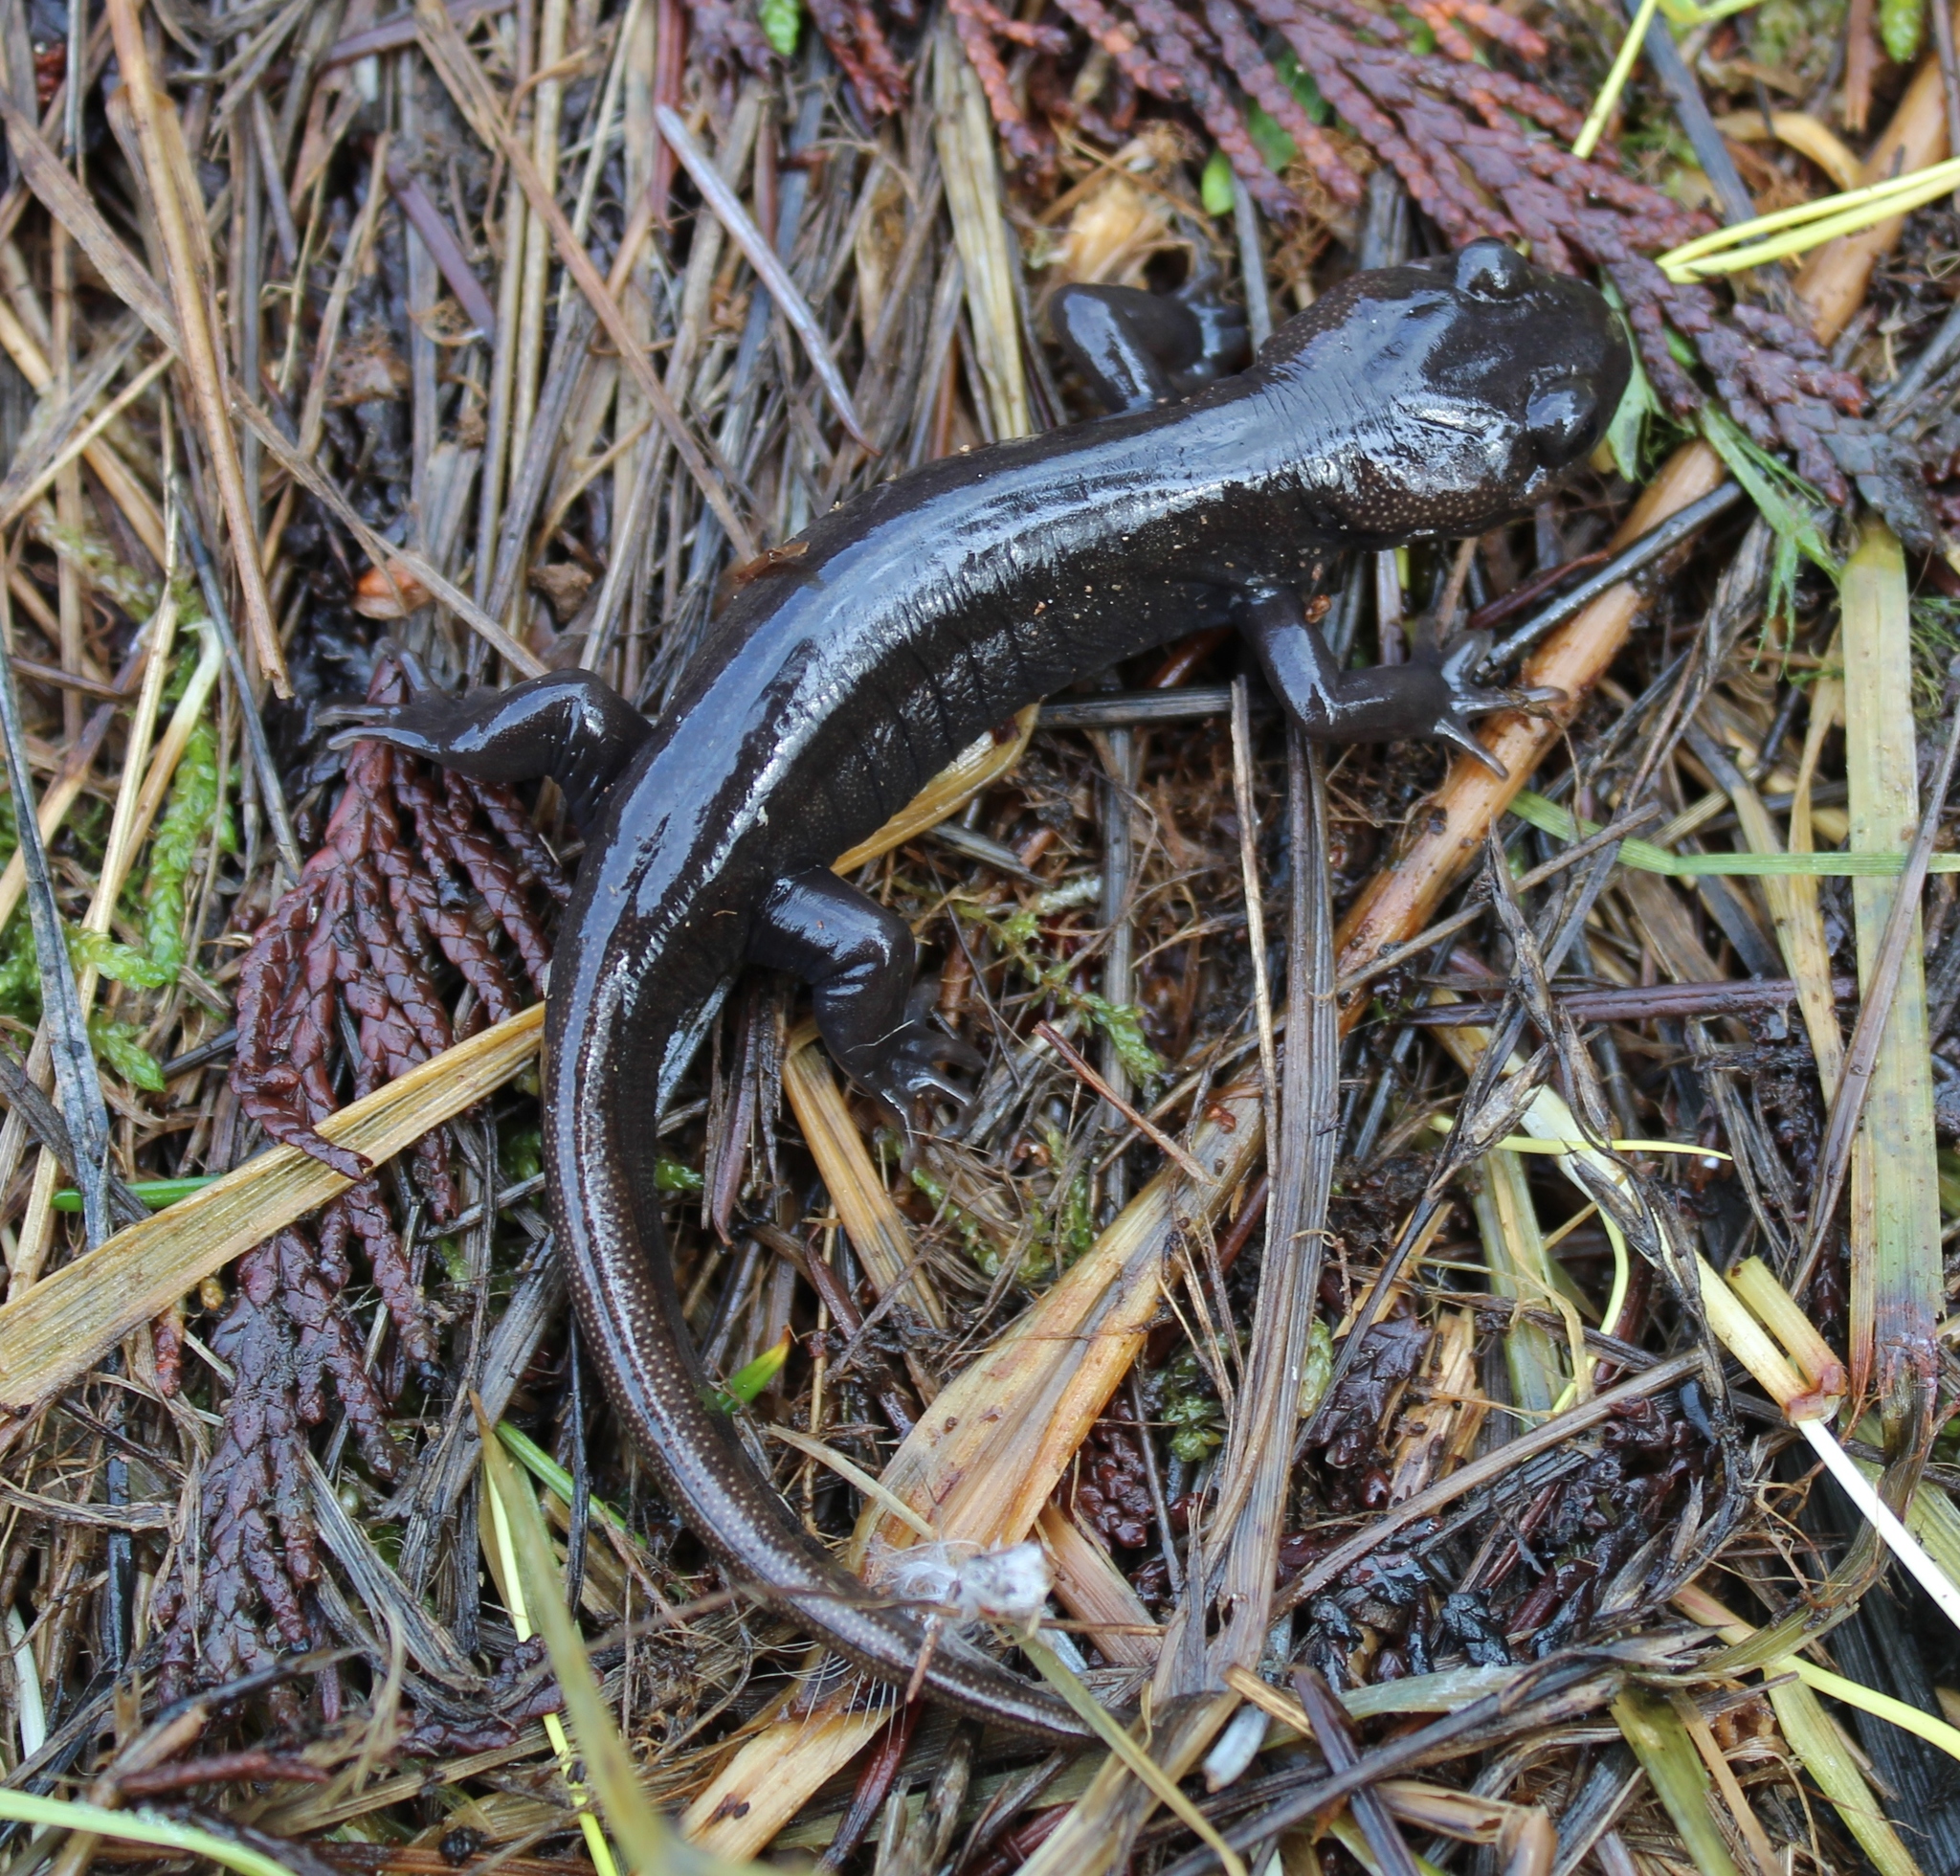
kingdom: Animalia
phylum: Chordata
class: Amphibia
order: Caudata
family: Ambystomatidae
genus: Ambystoma
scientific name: Ambystoma gracile
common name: Northwestern salamander
